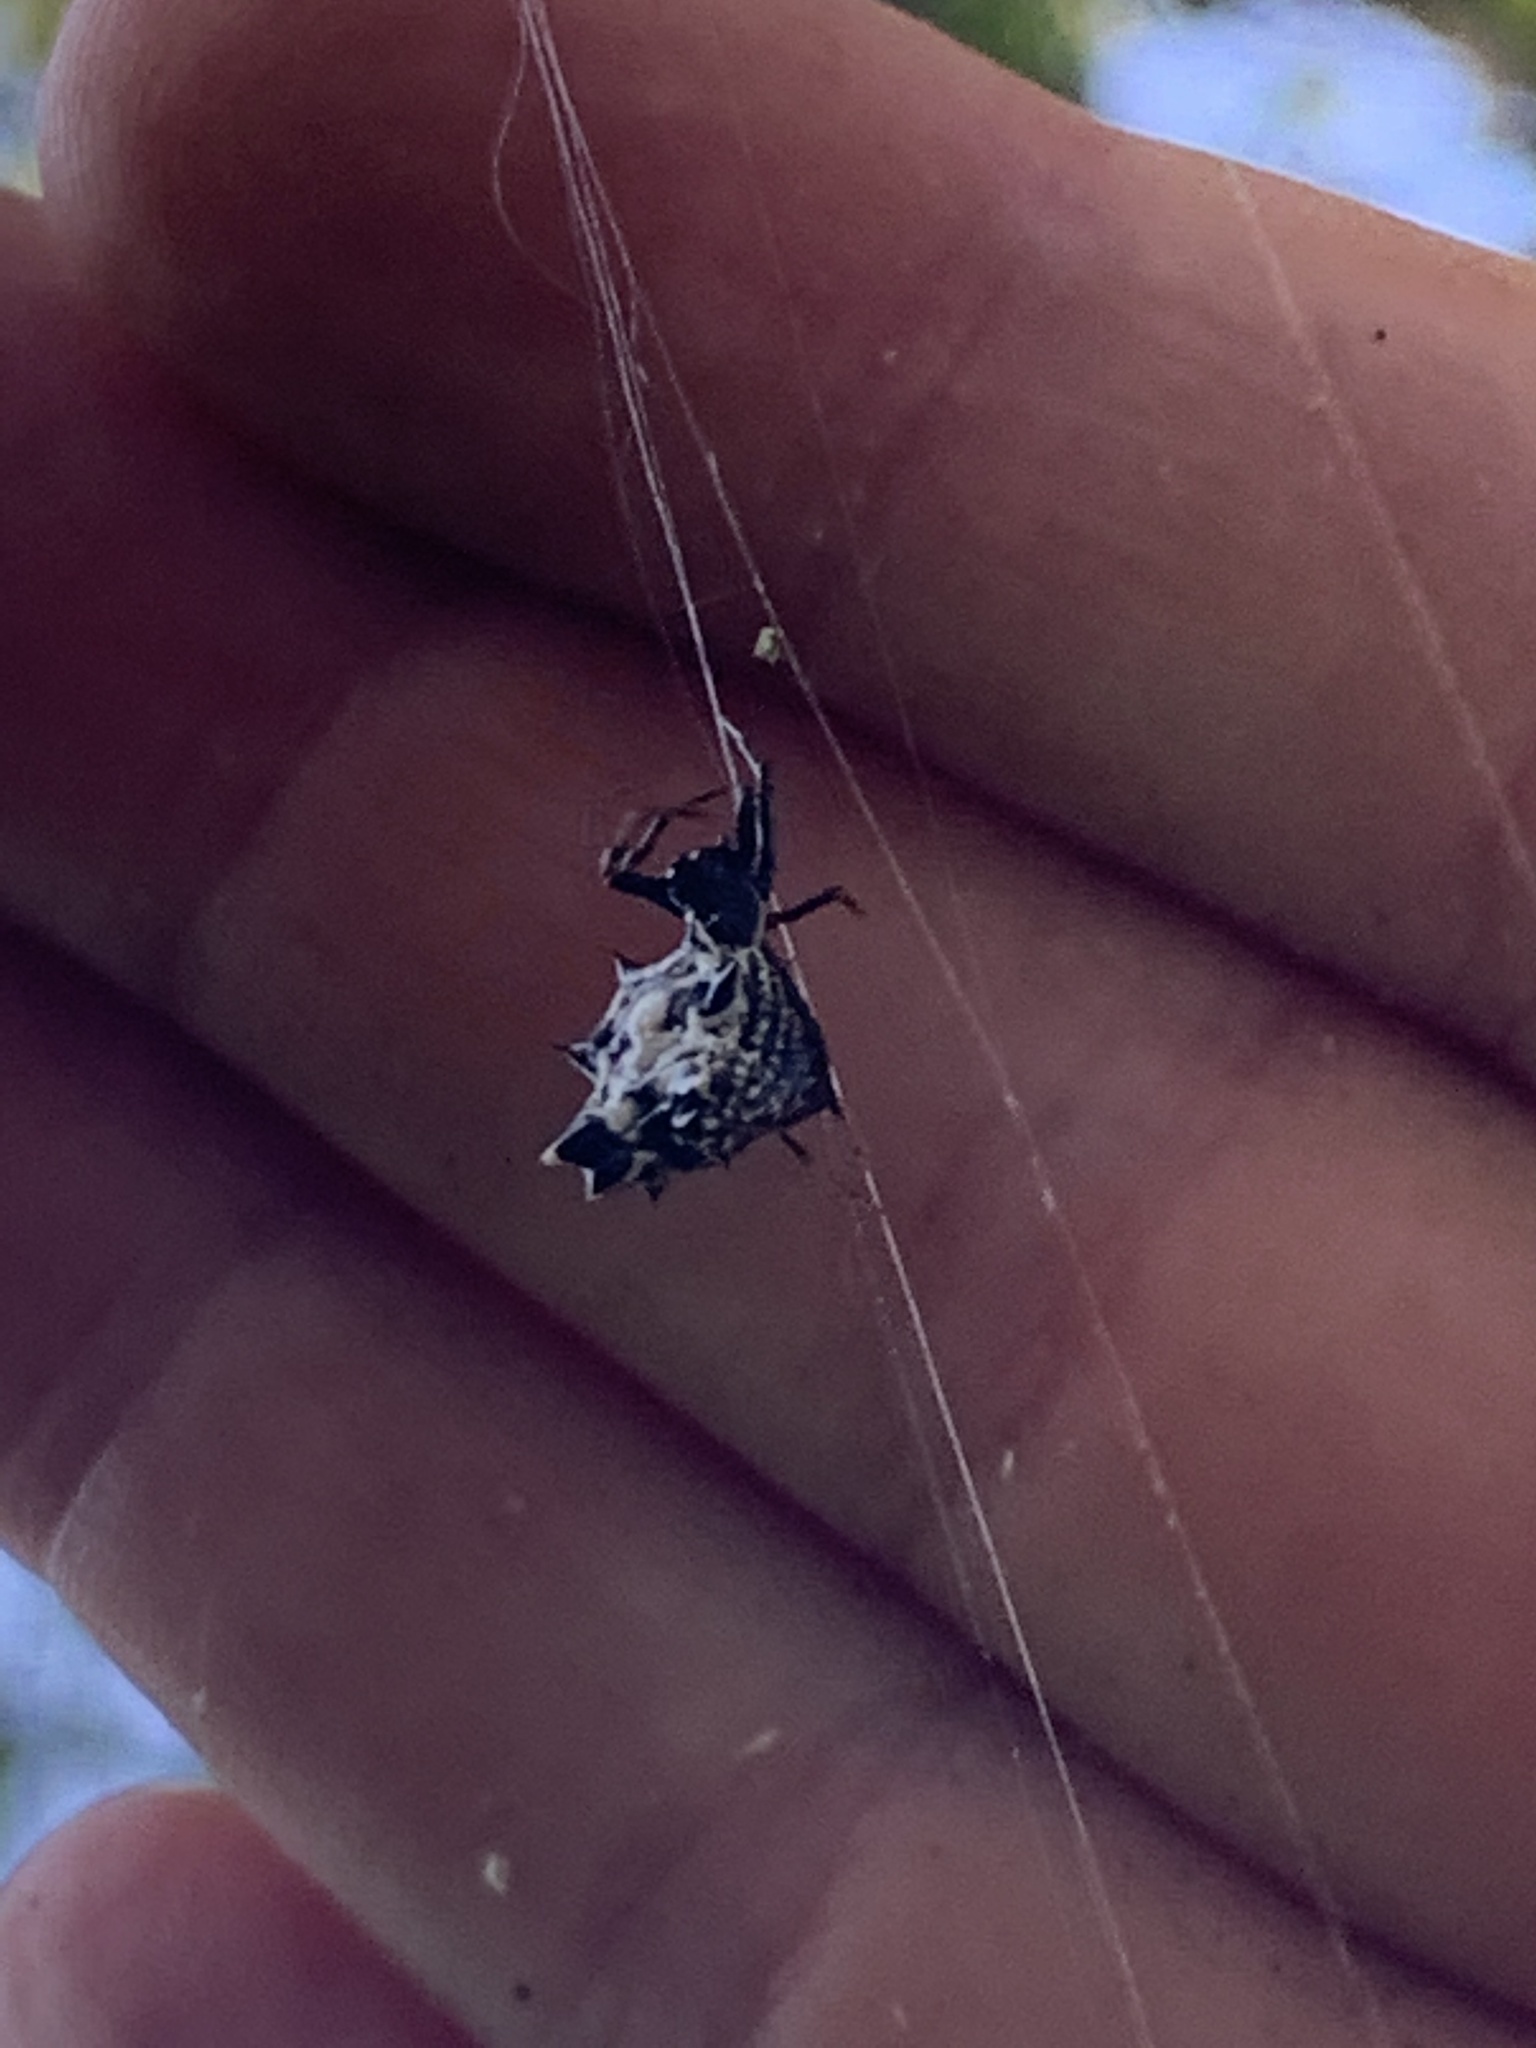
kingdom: Animalia
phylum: Arthropoda
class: Arachnida
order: Araneae
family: Araneidae
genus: Micrathena
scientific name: Micrathena gracilis
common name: Orb weavers
